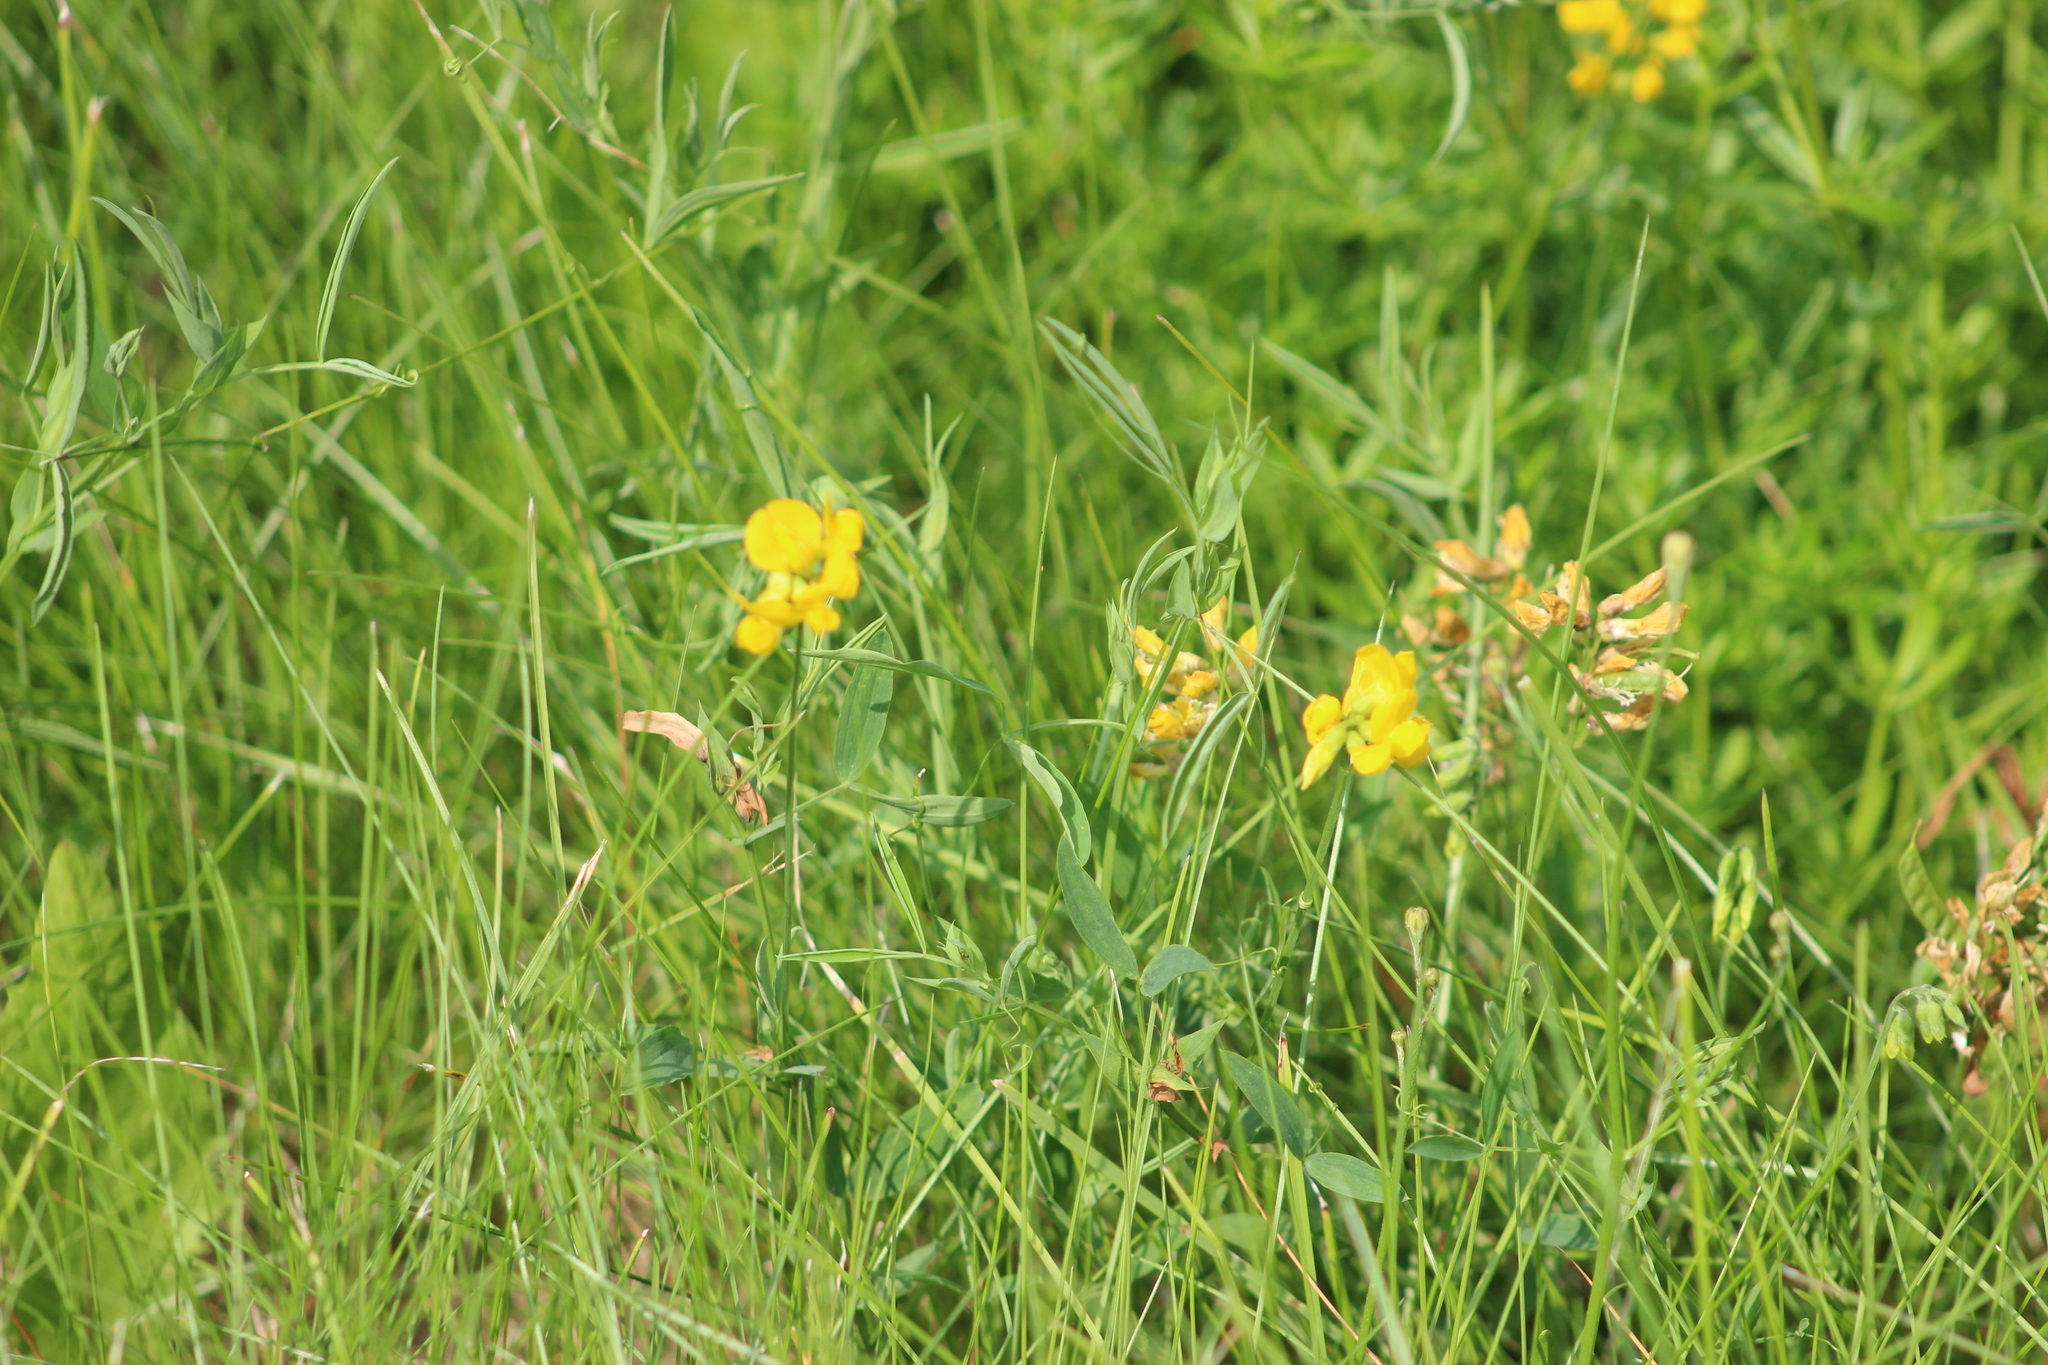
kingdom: Plantae
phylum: Tracheophyta
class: Magnoliopsida
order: Fabales
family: Fabaceae
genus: Lotus
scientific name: Lotus corniculatus
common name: Common bird's-foot-trefoil
